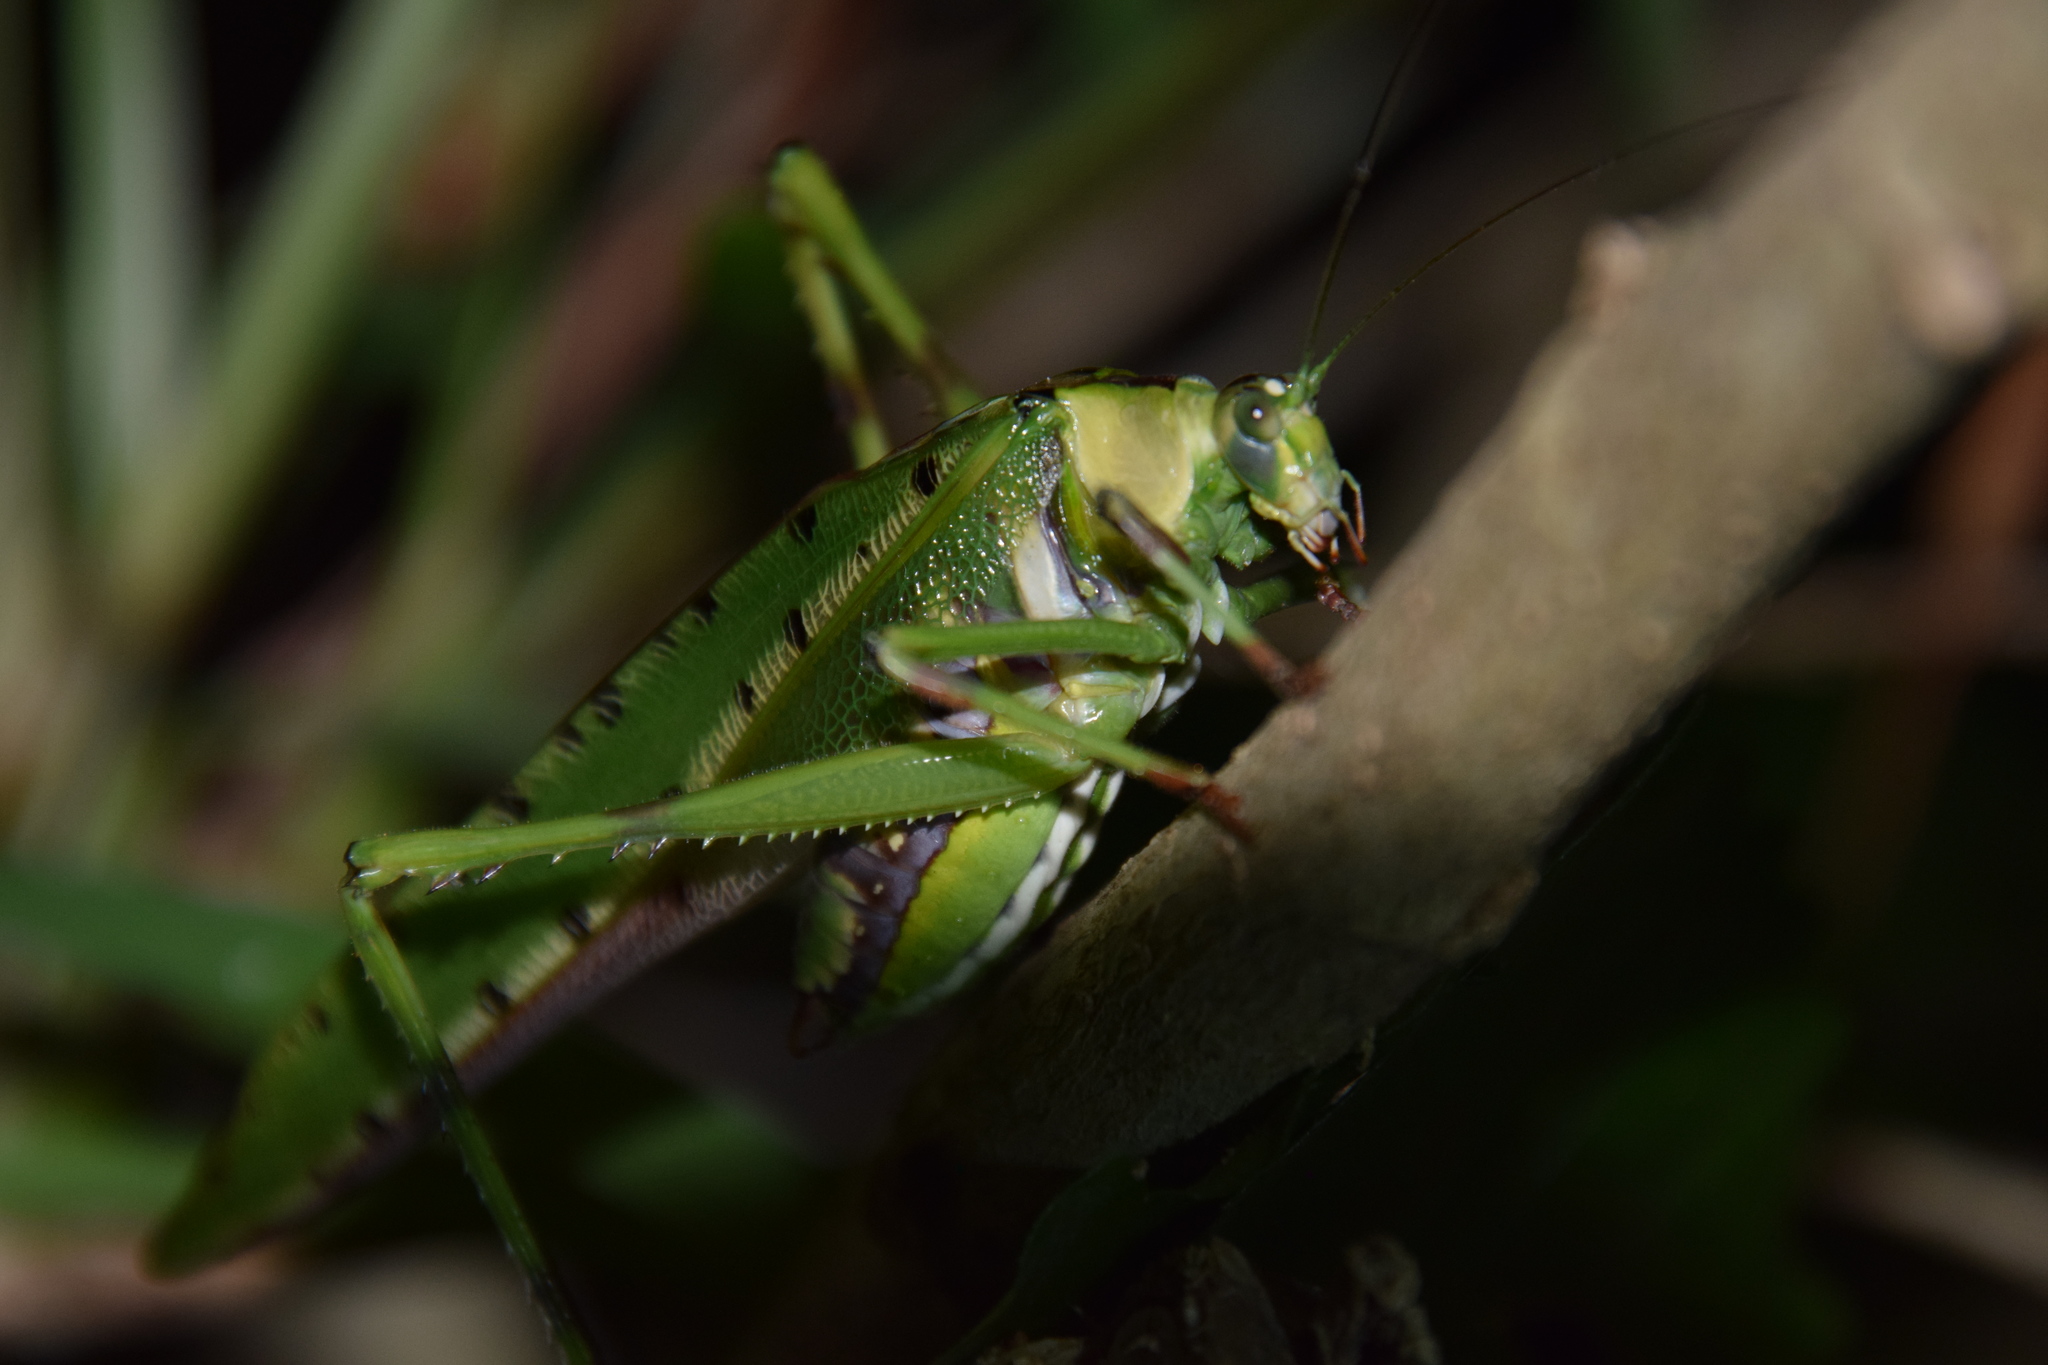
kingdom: Animalia
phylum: Arthropoda
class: Insecta
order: Orthoptera
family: Tettigoniidae
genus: Ephippitytha
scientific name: Ephippitytha froggatti
